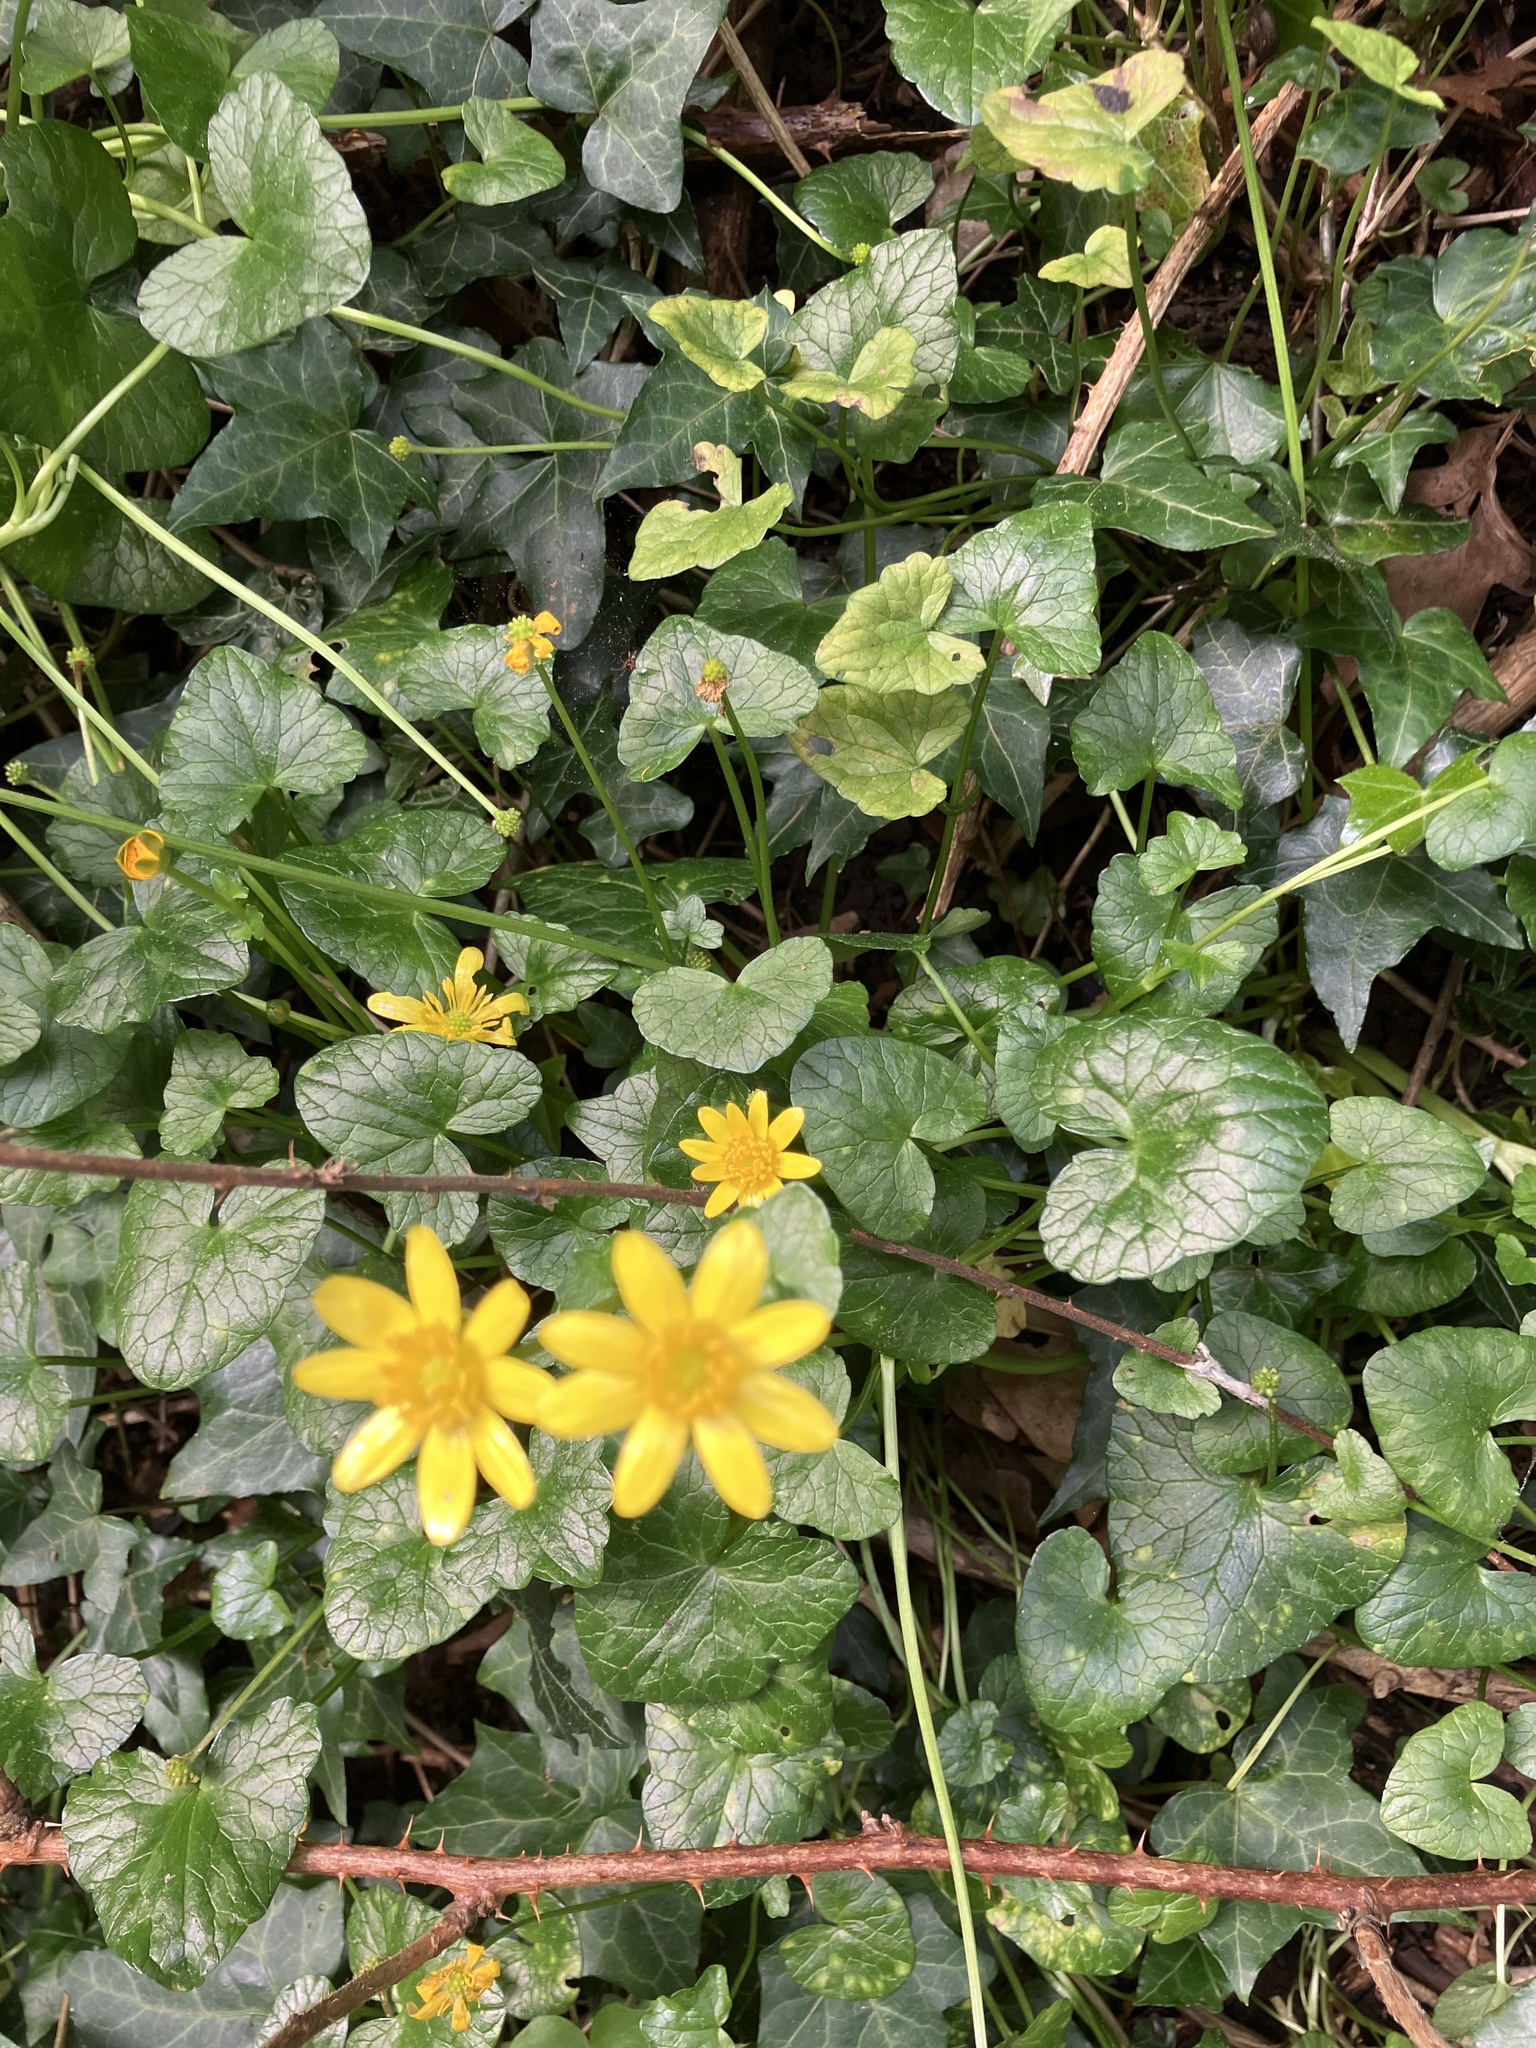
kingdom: Plantae
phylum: Tracheophyta
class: Magnoliopsida
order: Ranunculales
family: Ranunculaceae
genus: Ficaria
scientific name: Ficaria verna
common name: Lesser celandine
